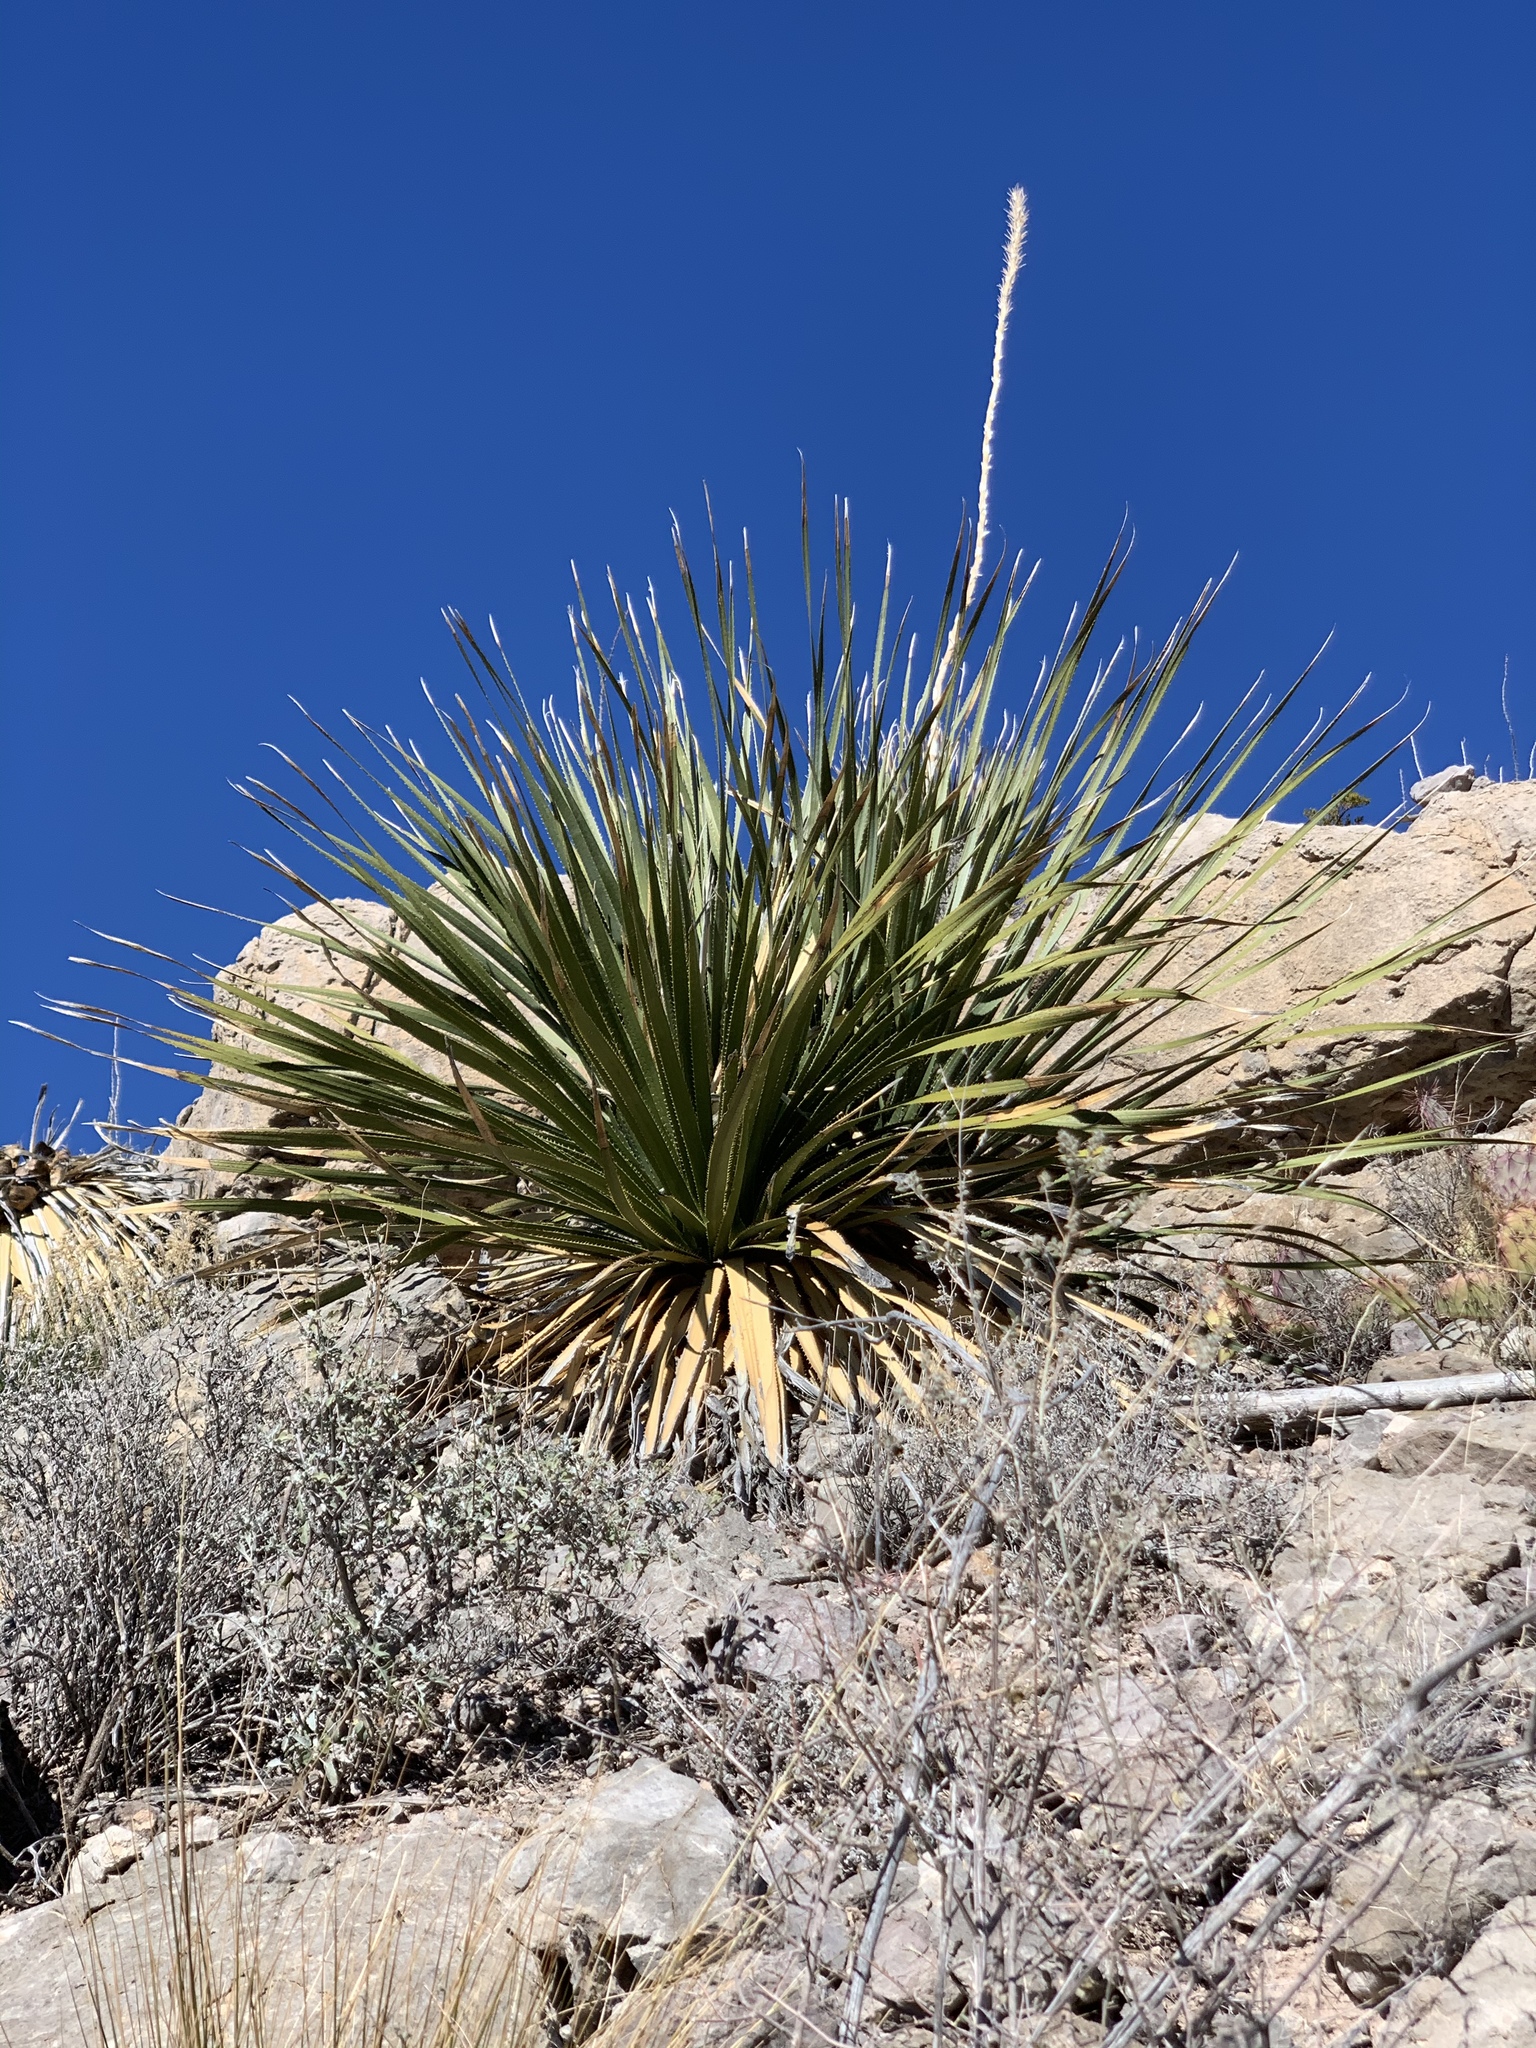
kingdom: Plantae
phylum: Tracheophyta
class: Liliopsida
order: Asparagales
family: Asparagaceae
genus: Dasylirion
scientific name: Dasylirion wheeleri
